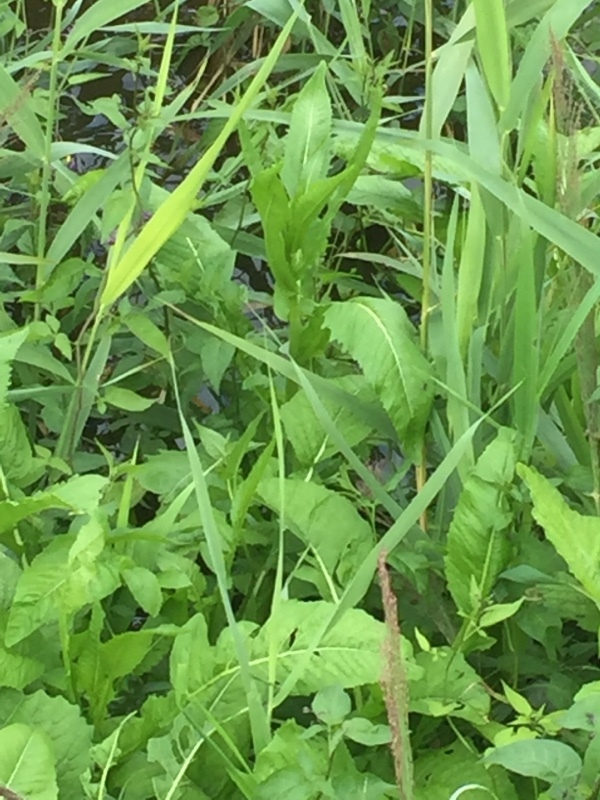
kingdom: Plantae
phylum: Tracheophyta
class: Magnoliopsida
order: Asterales
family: Asteraceae
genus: Cirsium
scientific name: Cirsium oleraceum
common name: Cabbage thistle
